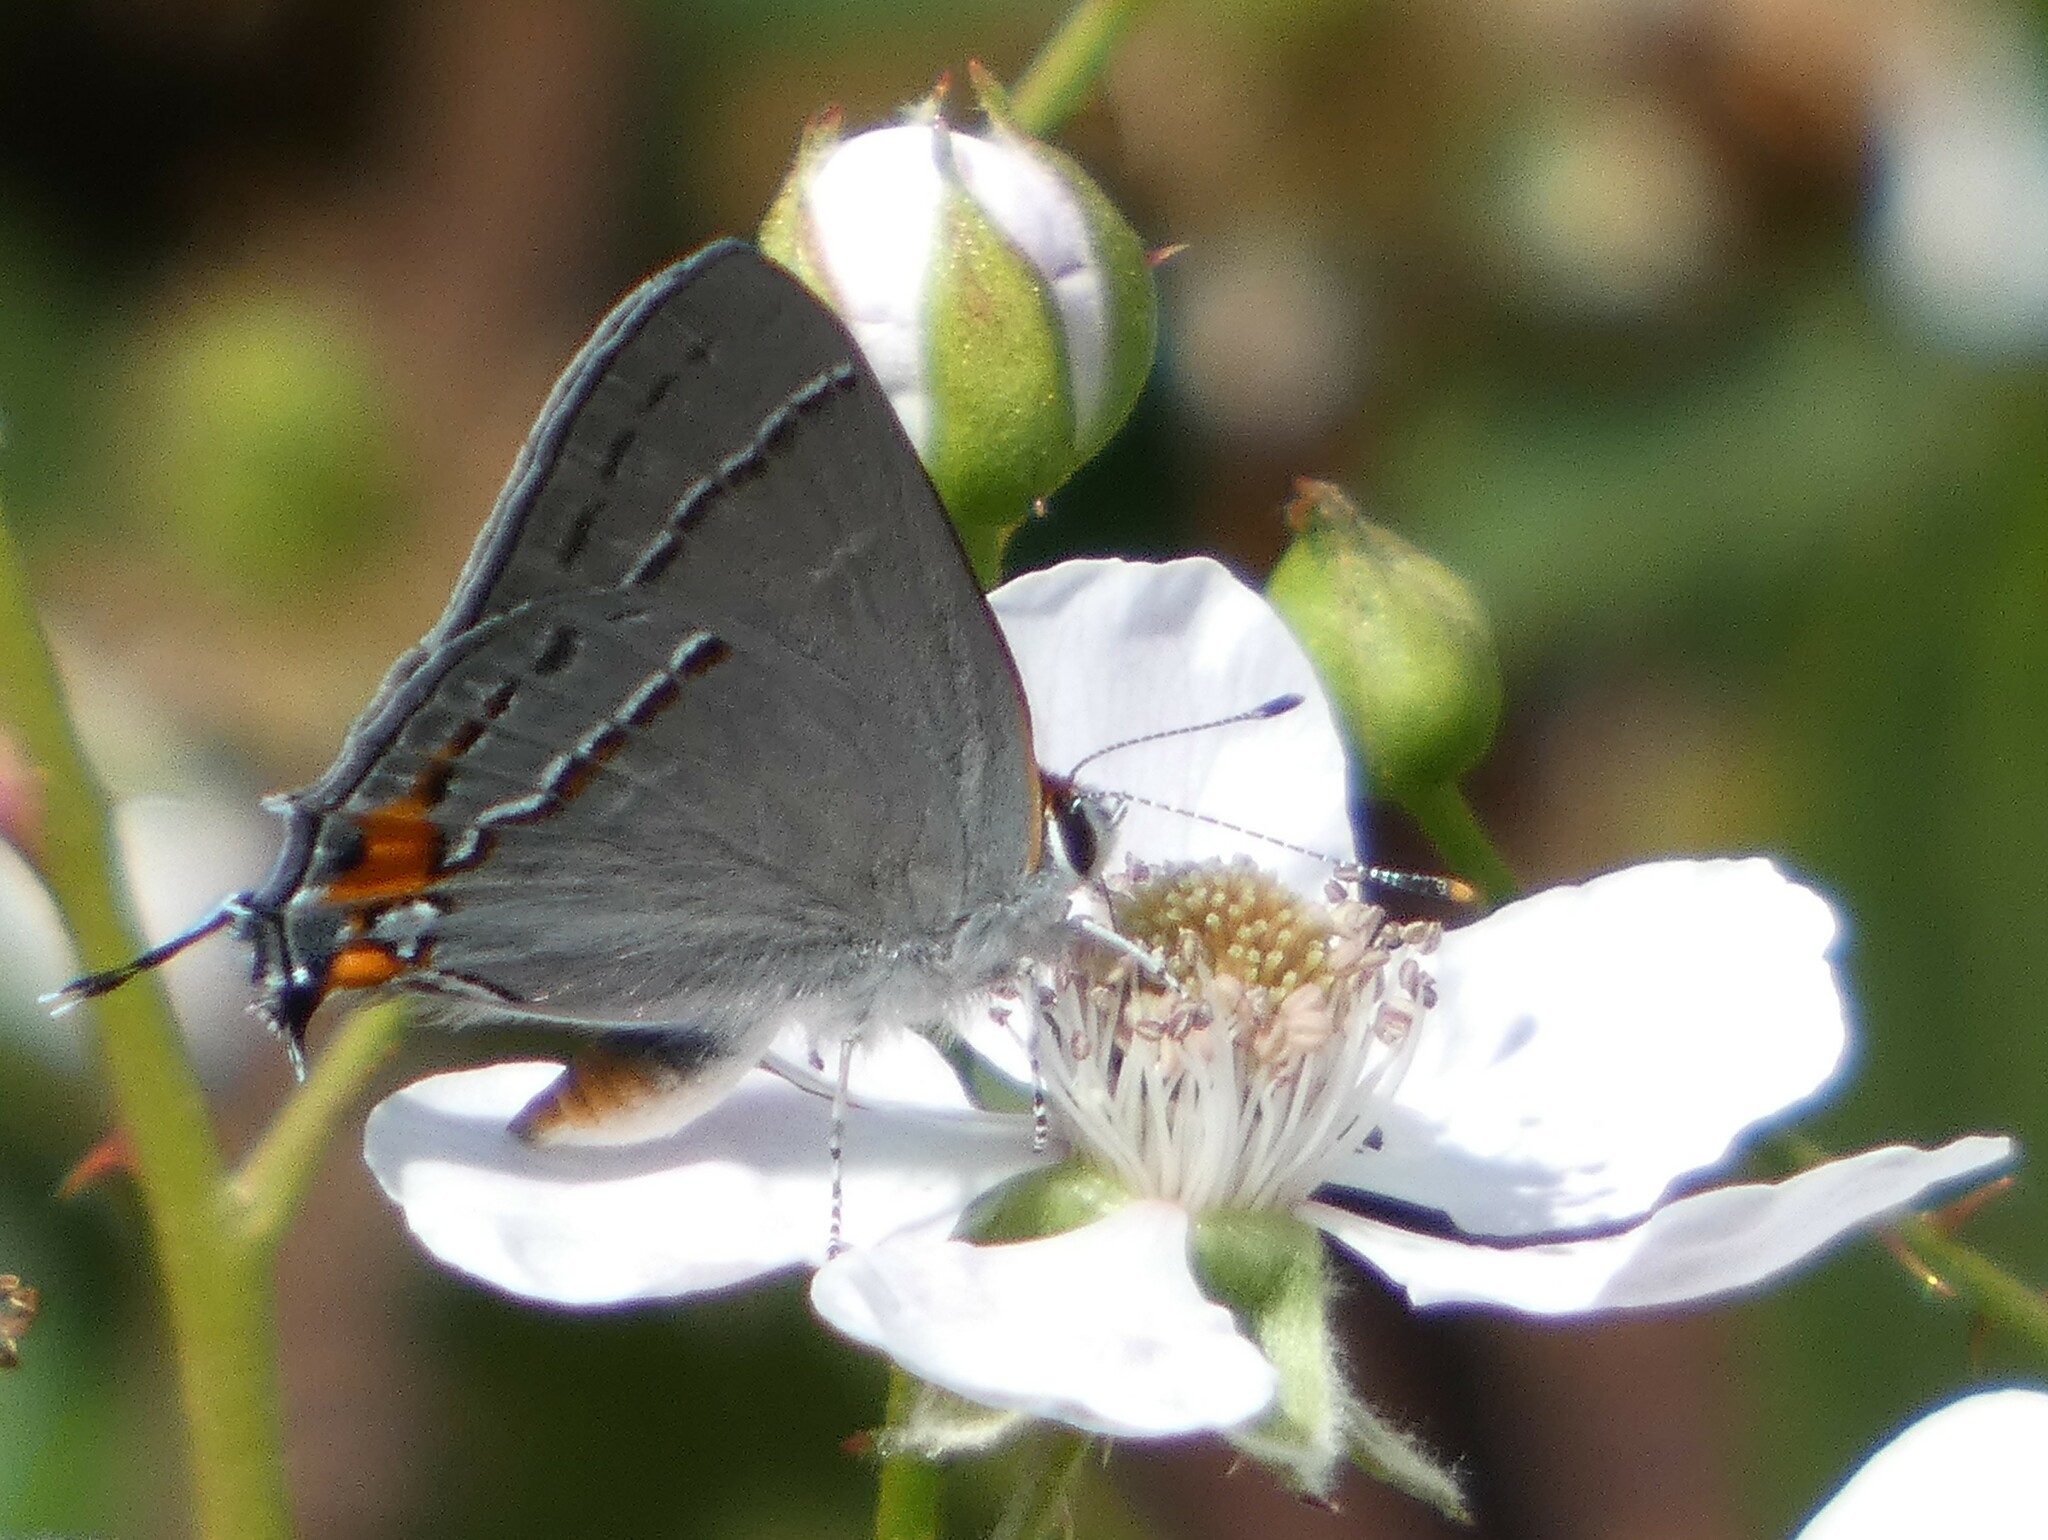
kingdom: Animalia
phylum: Arthropoda
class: Insecta
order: Lepidoptera
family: Lycaenidae
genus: Strymon
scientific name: Strymon melinus
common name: Gray hairstreak
